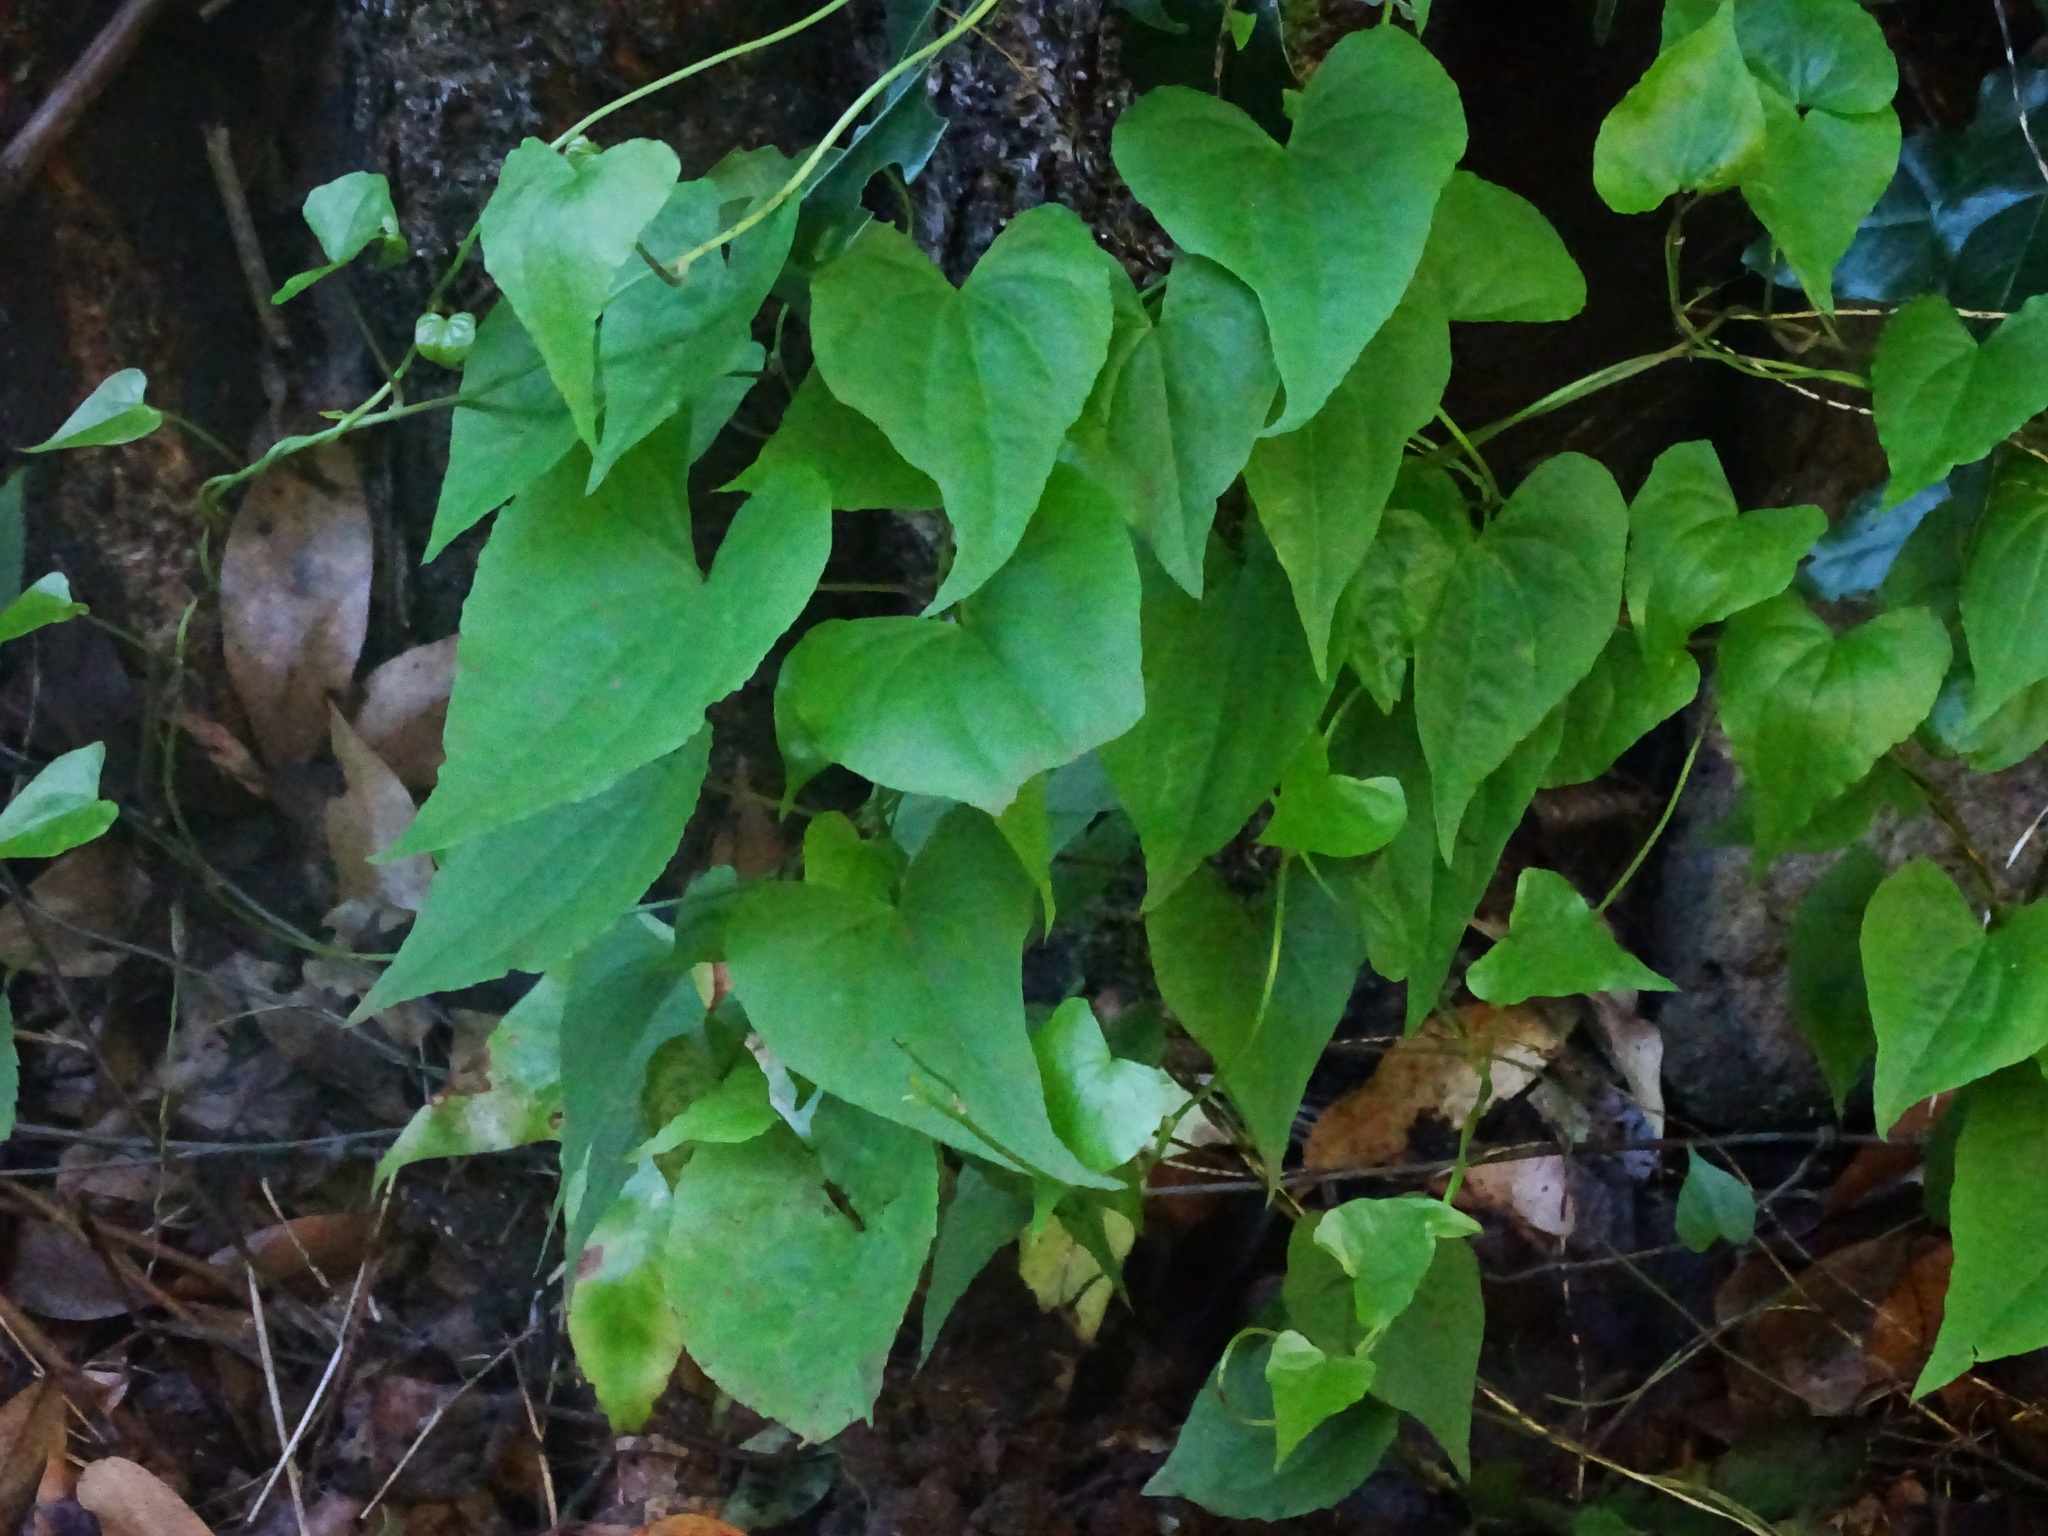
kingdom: Plantae
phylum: Tracheophyta
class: Liliopsida
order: Dioscoreales
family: Dioscoreaceae
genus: Dioscorea
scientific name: Dioscorea communis
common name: Black-bindweed
